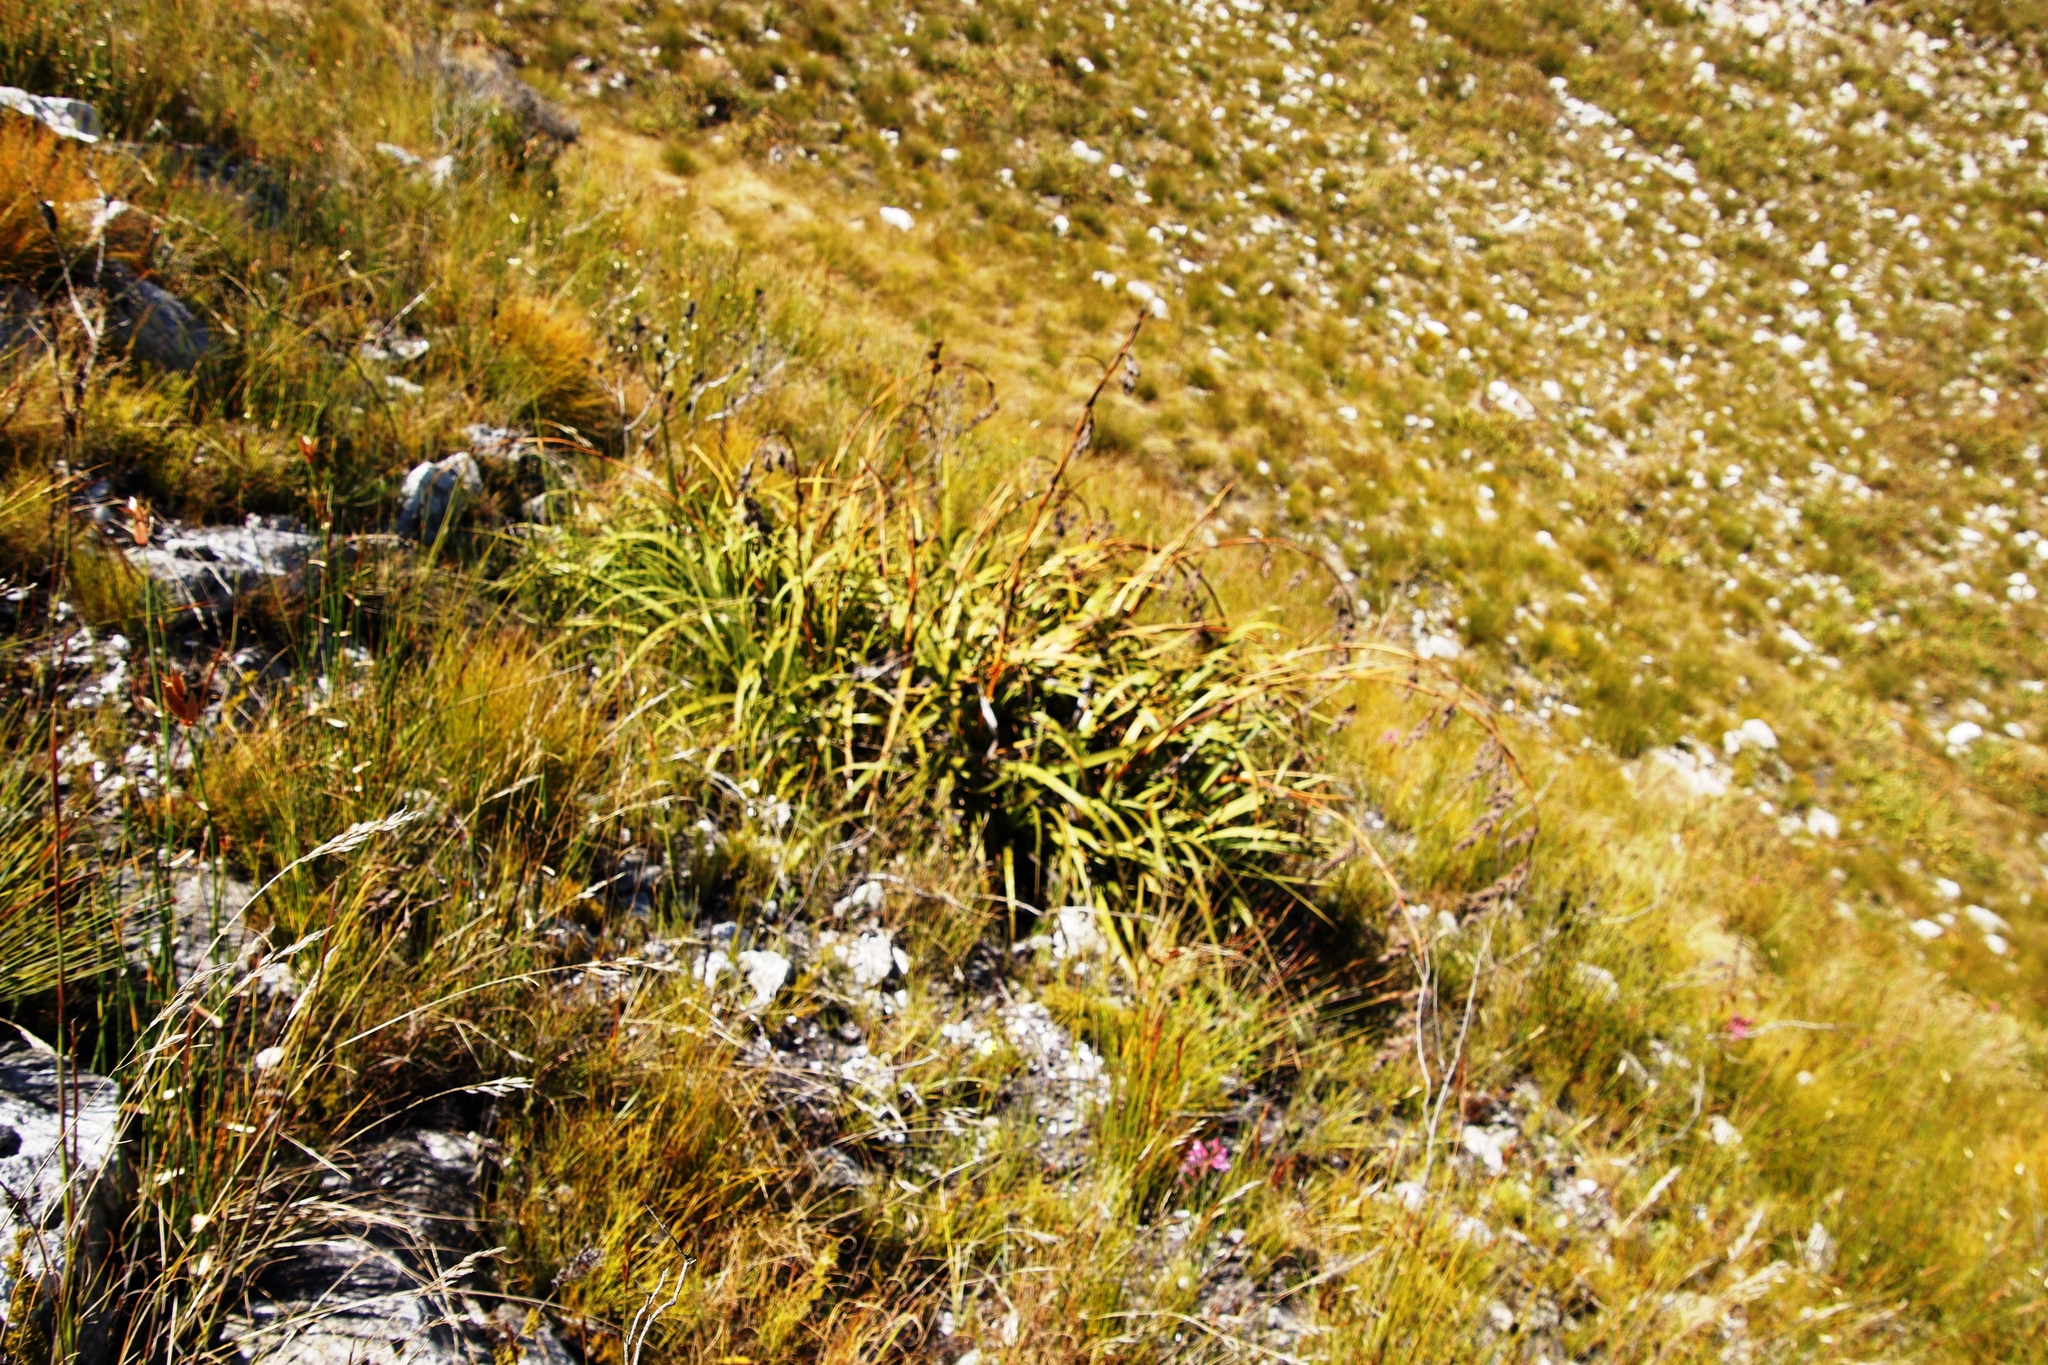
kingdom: Plantae
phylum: Tracheophyta
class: Liliopsida
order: Poales
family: Cyperaceae
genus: Tetraria
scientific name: Tetraria thermalis
